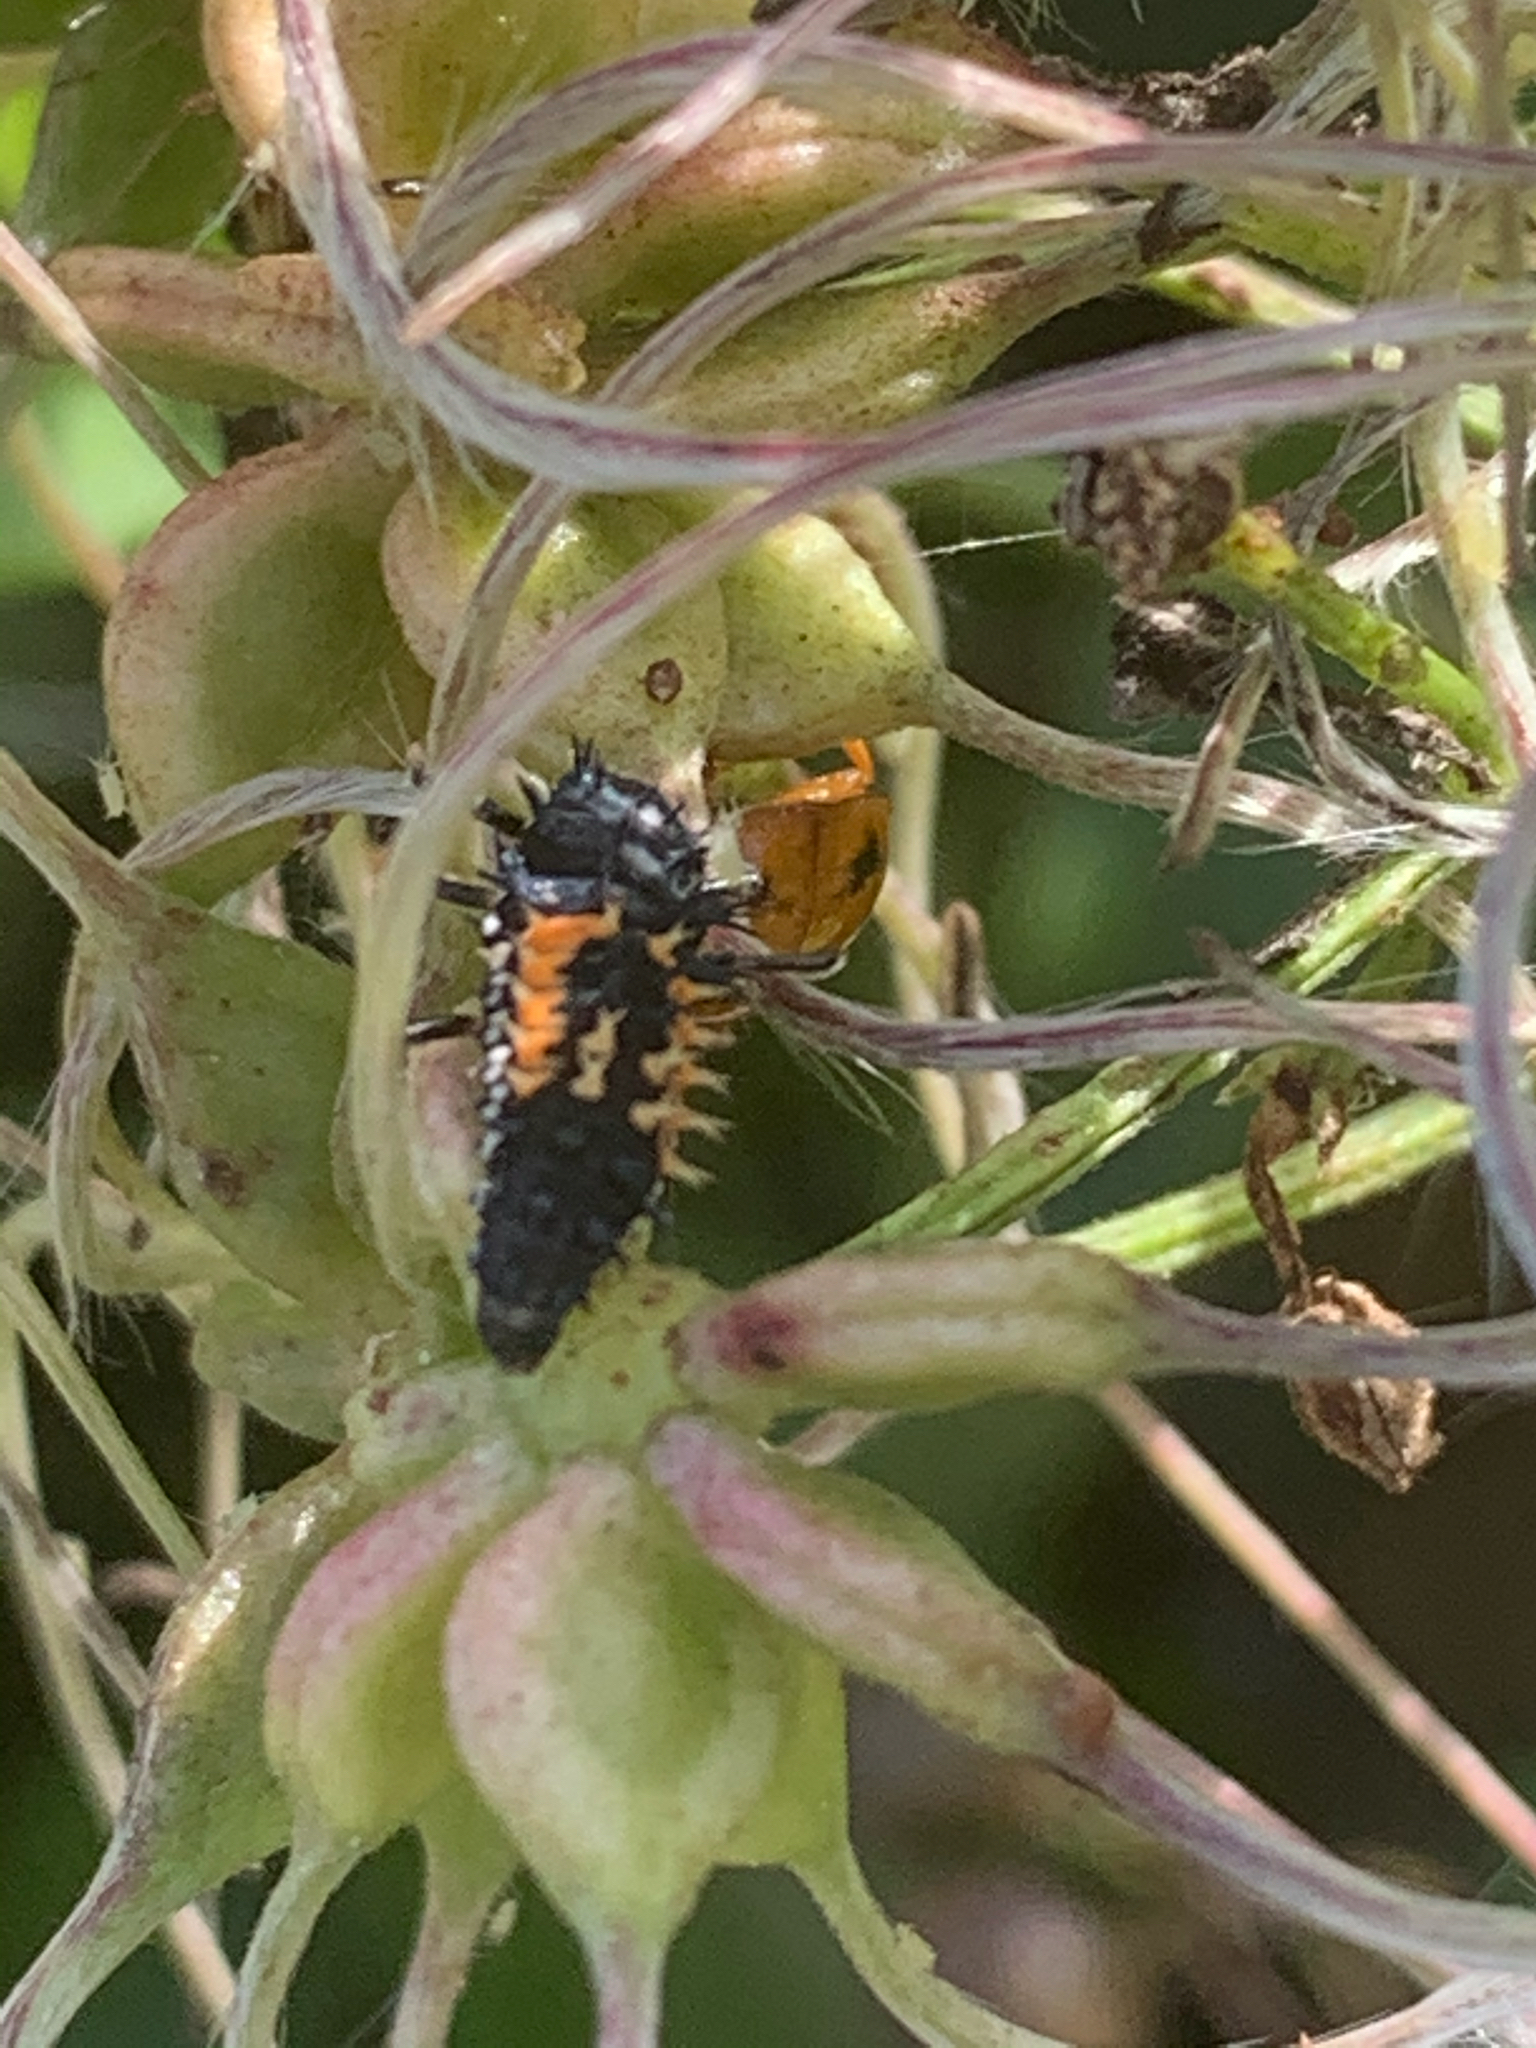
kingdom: Animalia
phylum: Arthropoda
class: Insecta
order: Coleoptera
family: Coccinellidae
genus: Harmonia
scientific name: Harmonia axyridis
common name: Harlequin ladybird
